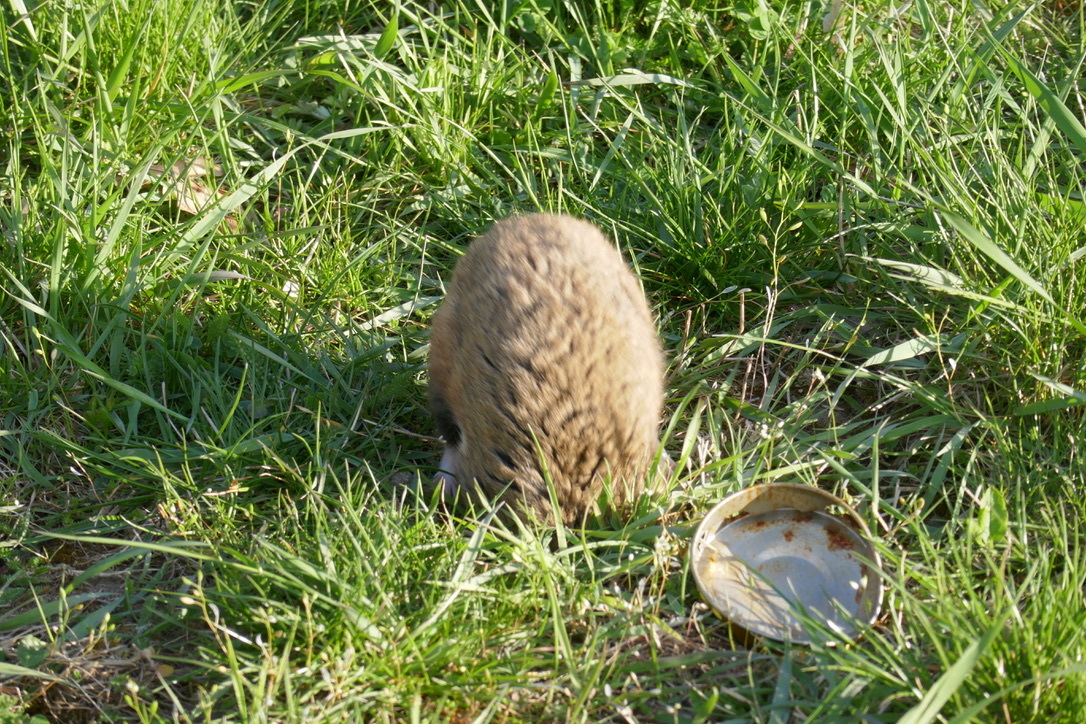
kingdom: Animalia
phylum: Chordata
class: Mammalia
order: Rodentia
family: Cricetidae
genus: Cricetus
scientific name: Cricetus cricetus
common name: Common hamster
